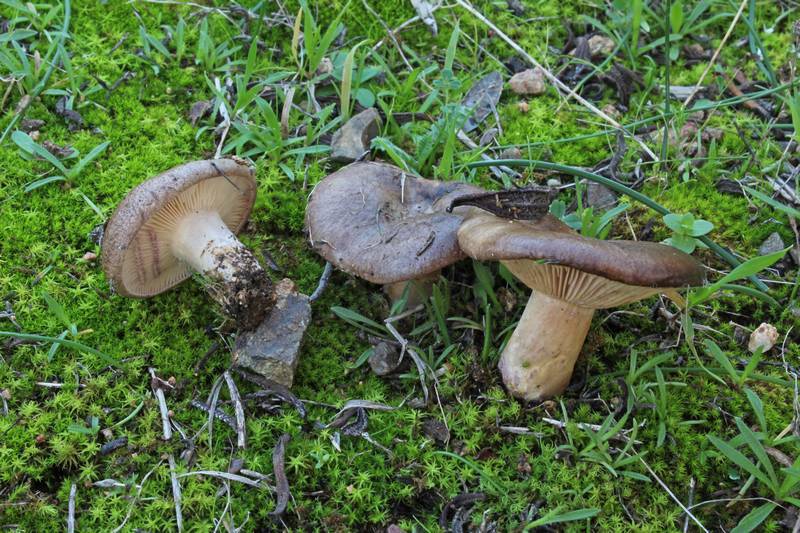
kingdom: Fungi
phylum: Basidiomycota
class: Agaricomycetes
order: Russulales
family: Russulaceae
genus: Lactarius
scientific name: Lactarius cistophilus
